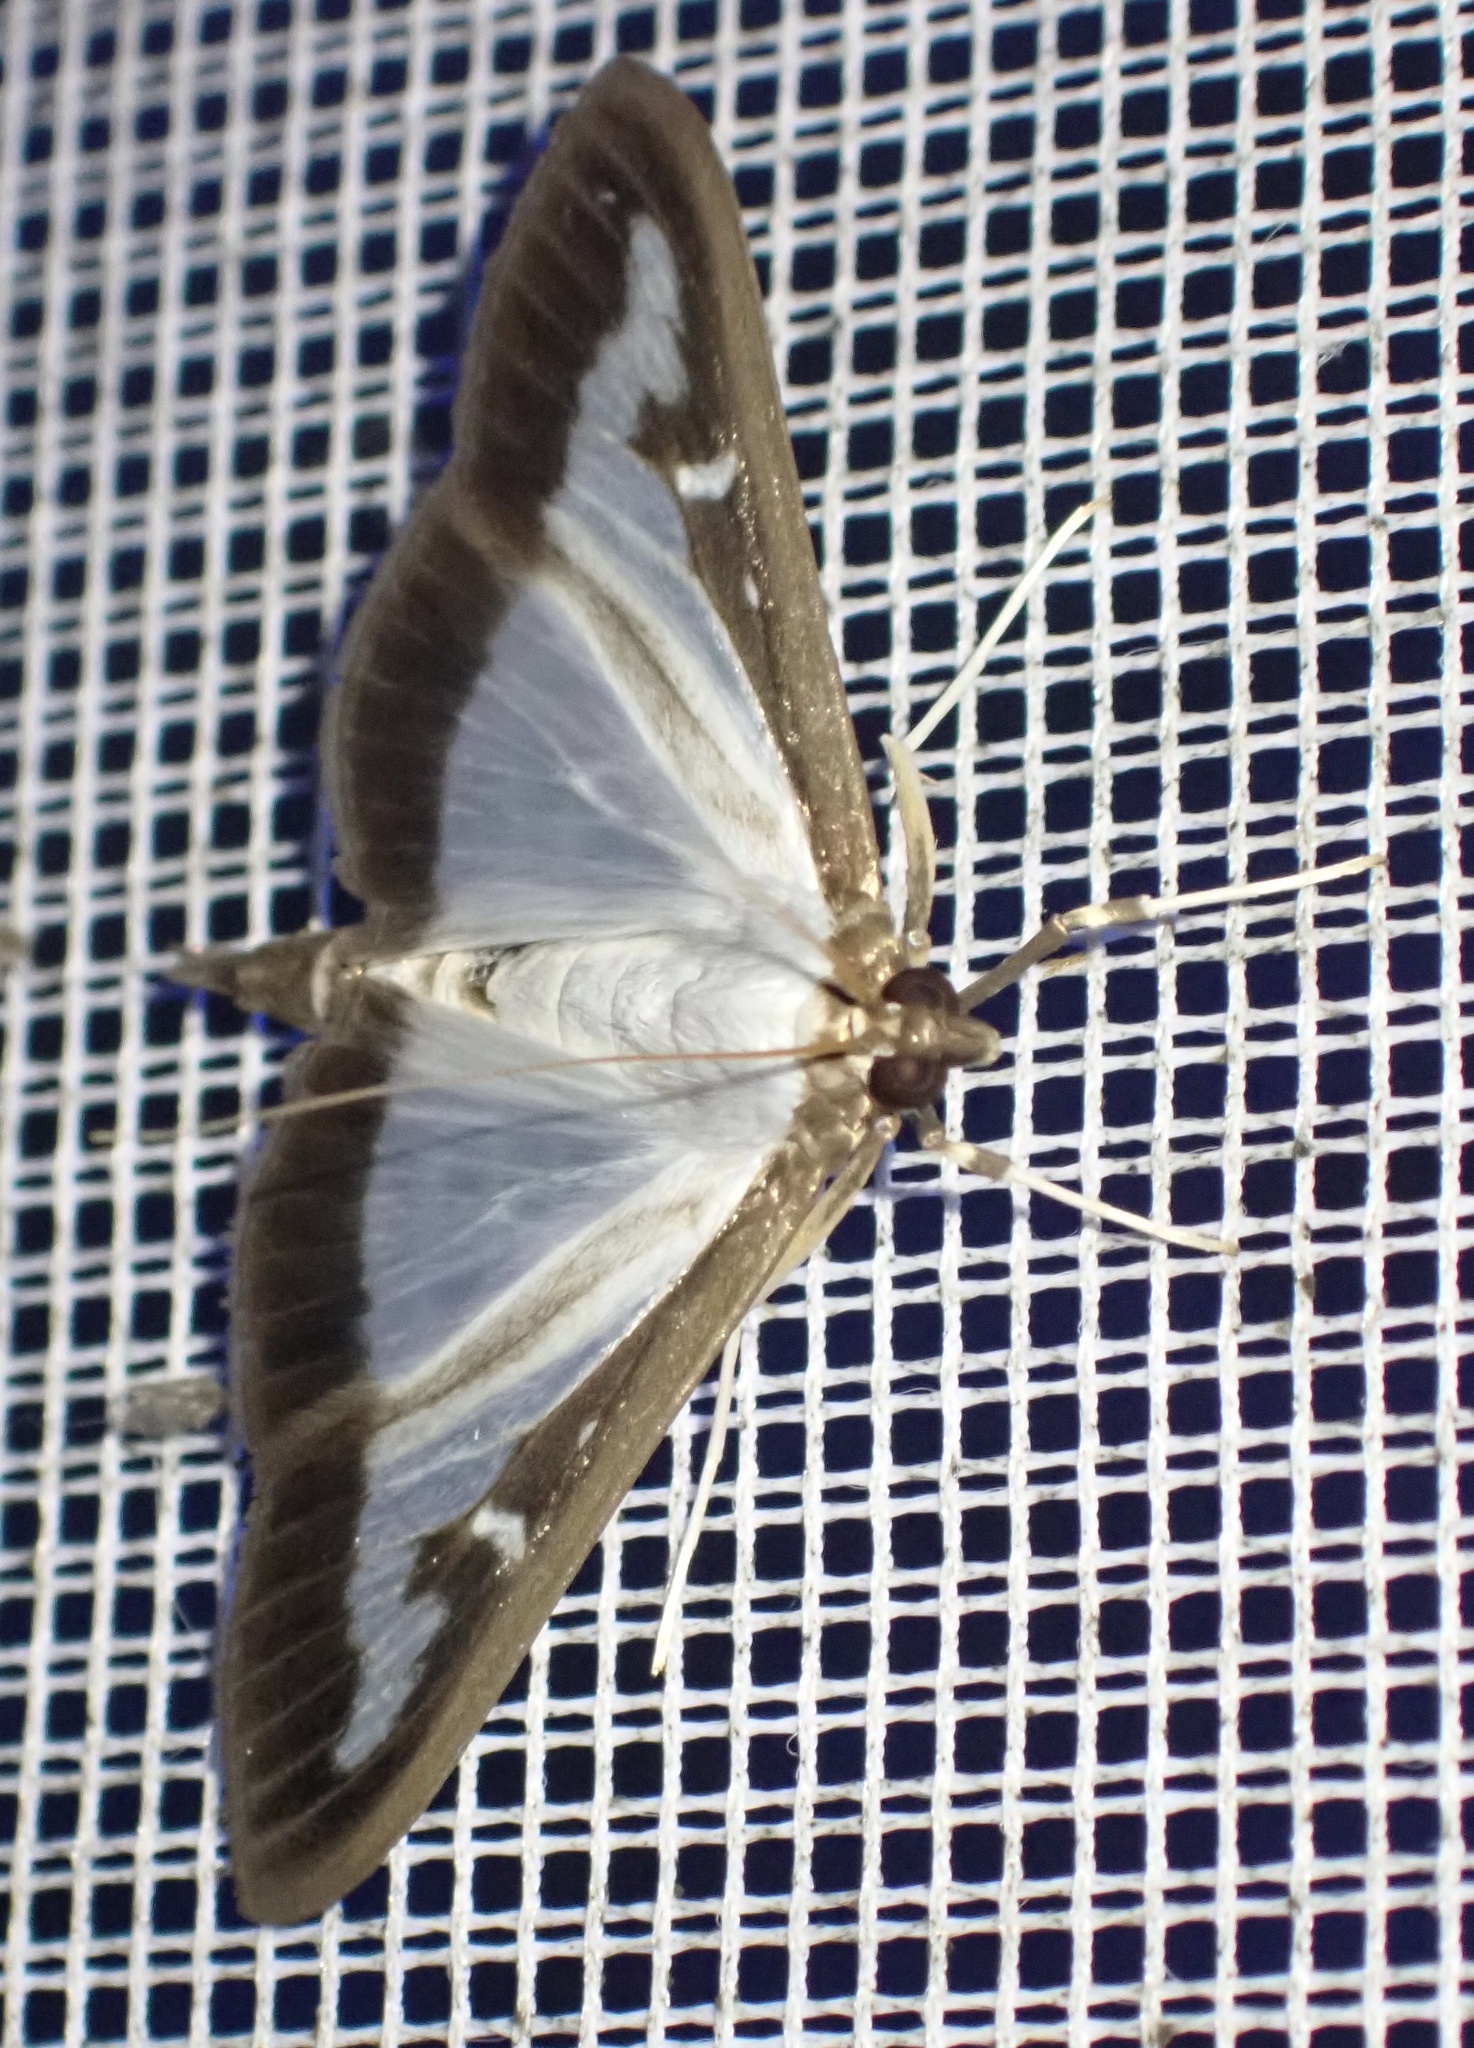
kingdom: Animalia
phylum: Arthropoda
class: Insecta
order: Lepidoptera
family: Crambidae
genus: Cydalima
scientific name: Cydalima perspectalis
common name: Box tree moth
